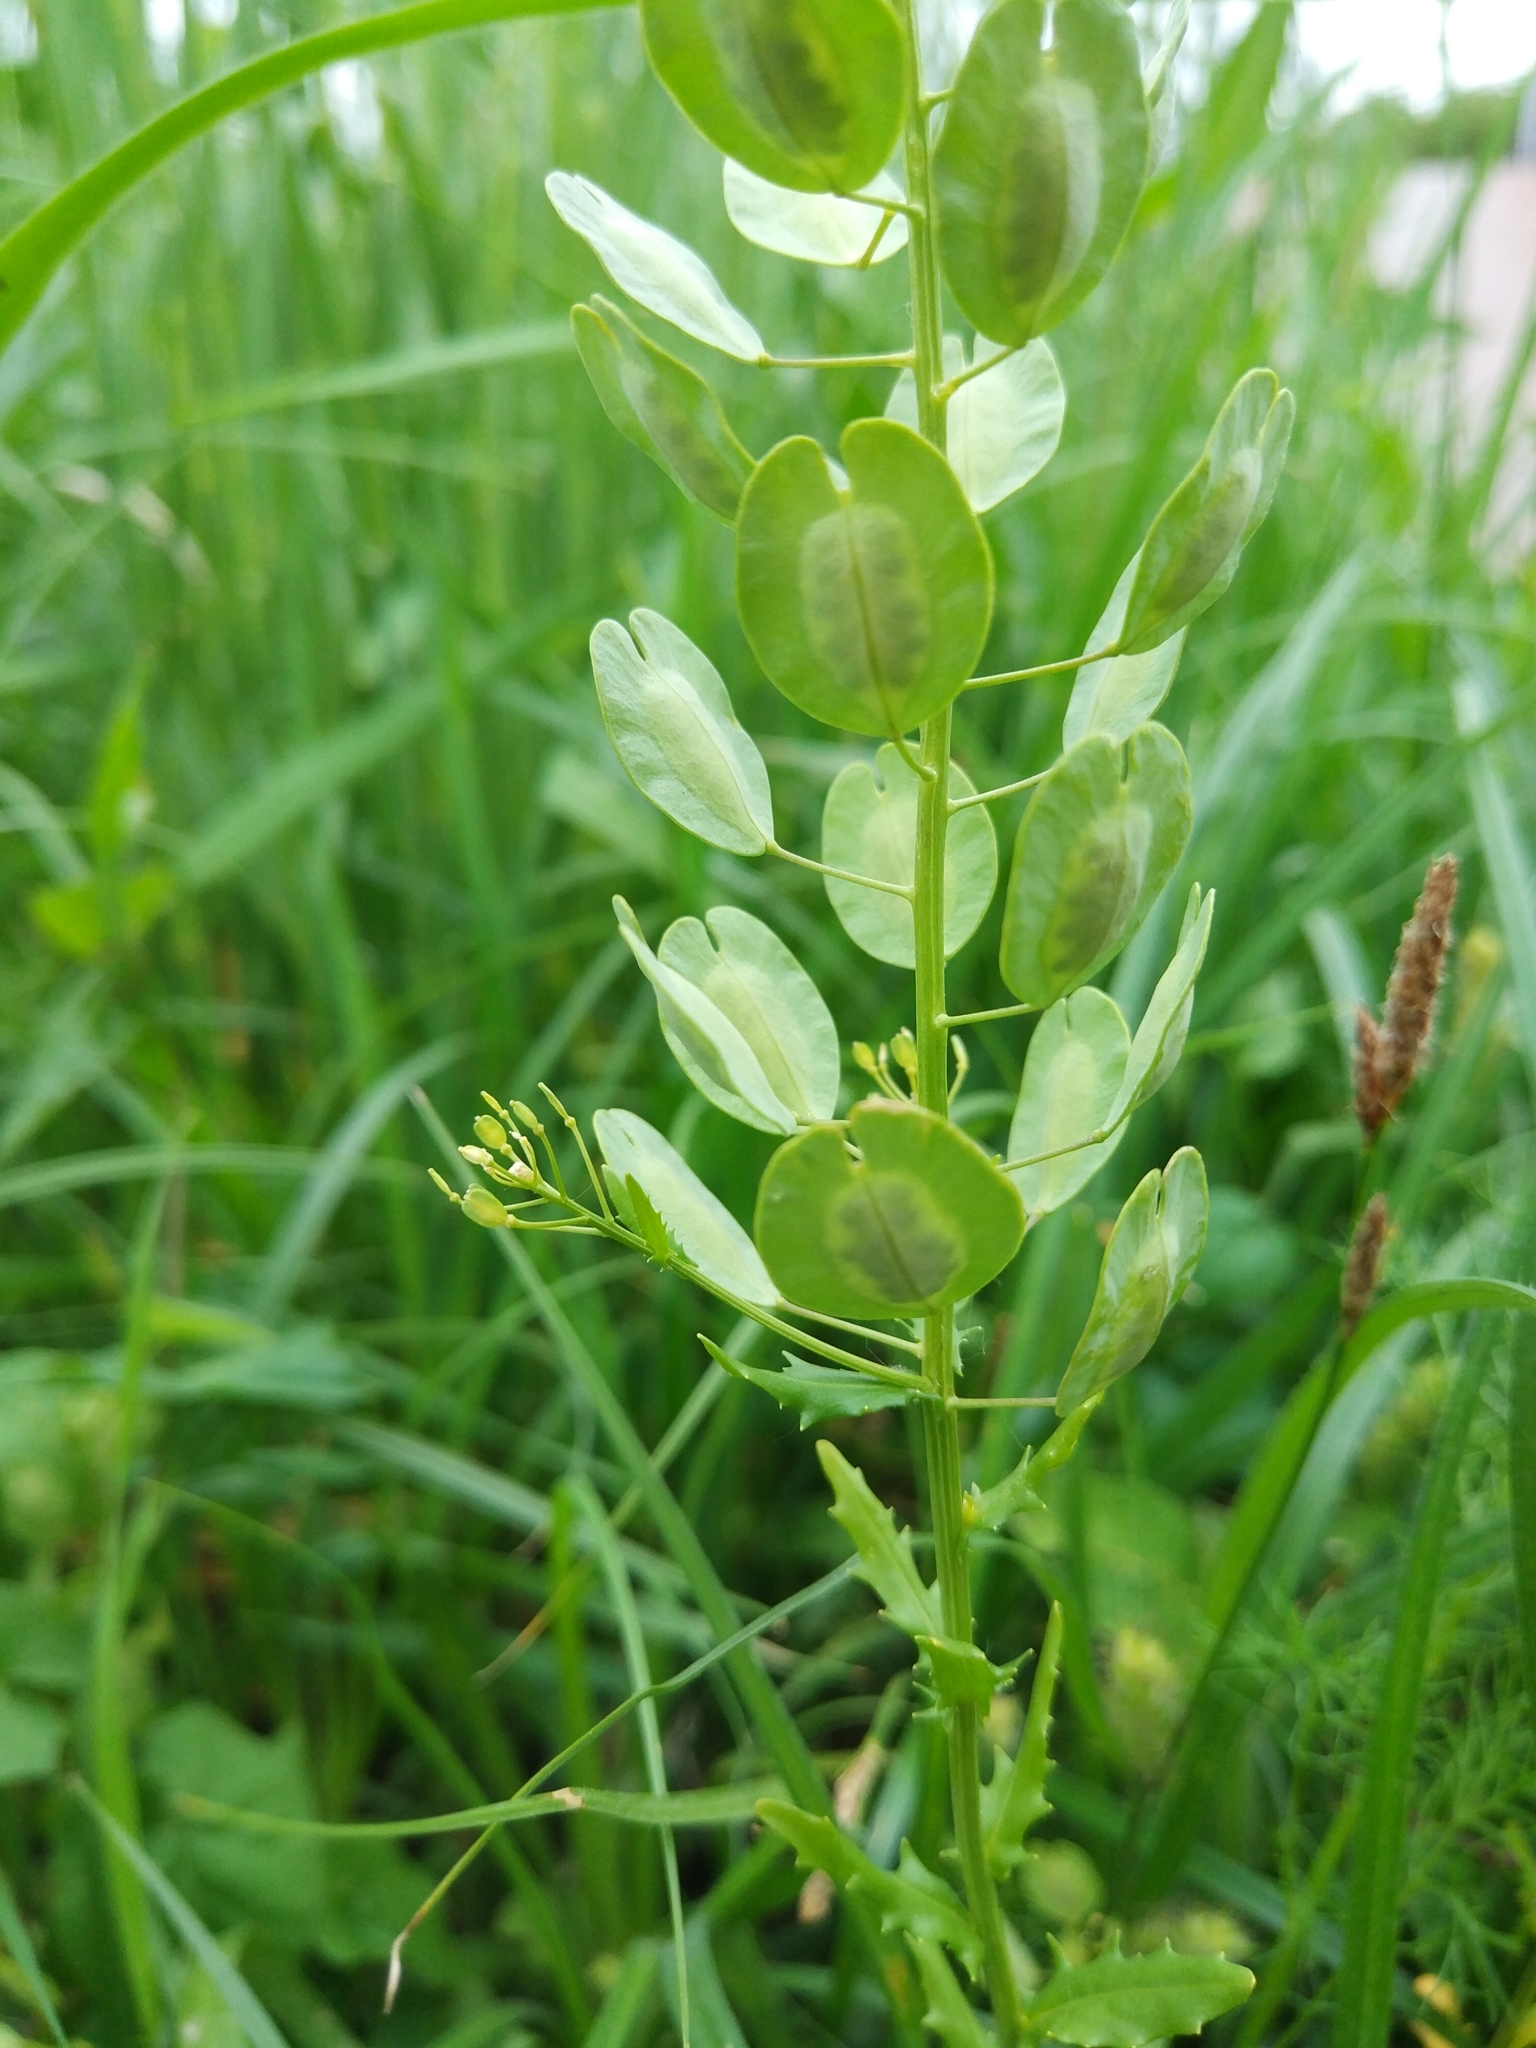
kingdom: Plantae
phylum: Tracheophyta
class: Magnoliopsida
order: Brassicales
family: Brassicaceae
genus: Thlaspi
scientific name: Thlaspi arvense
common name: Field pennycress
